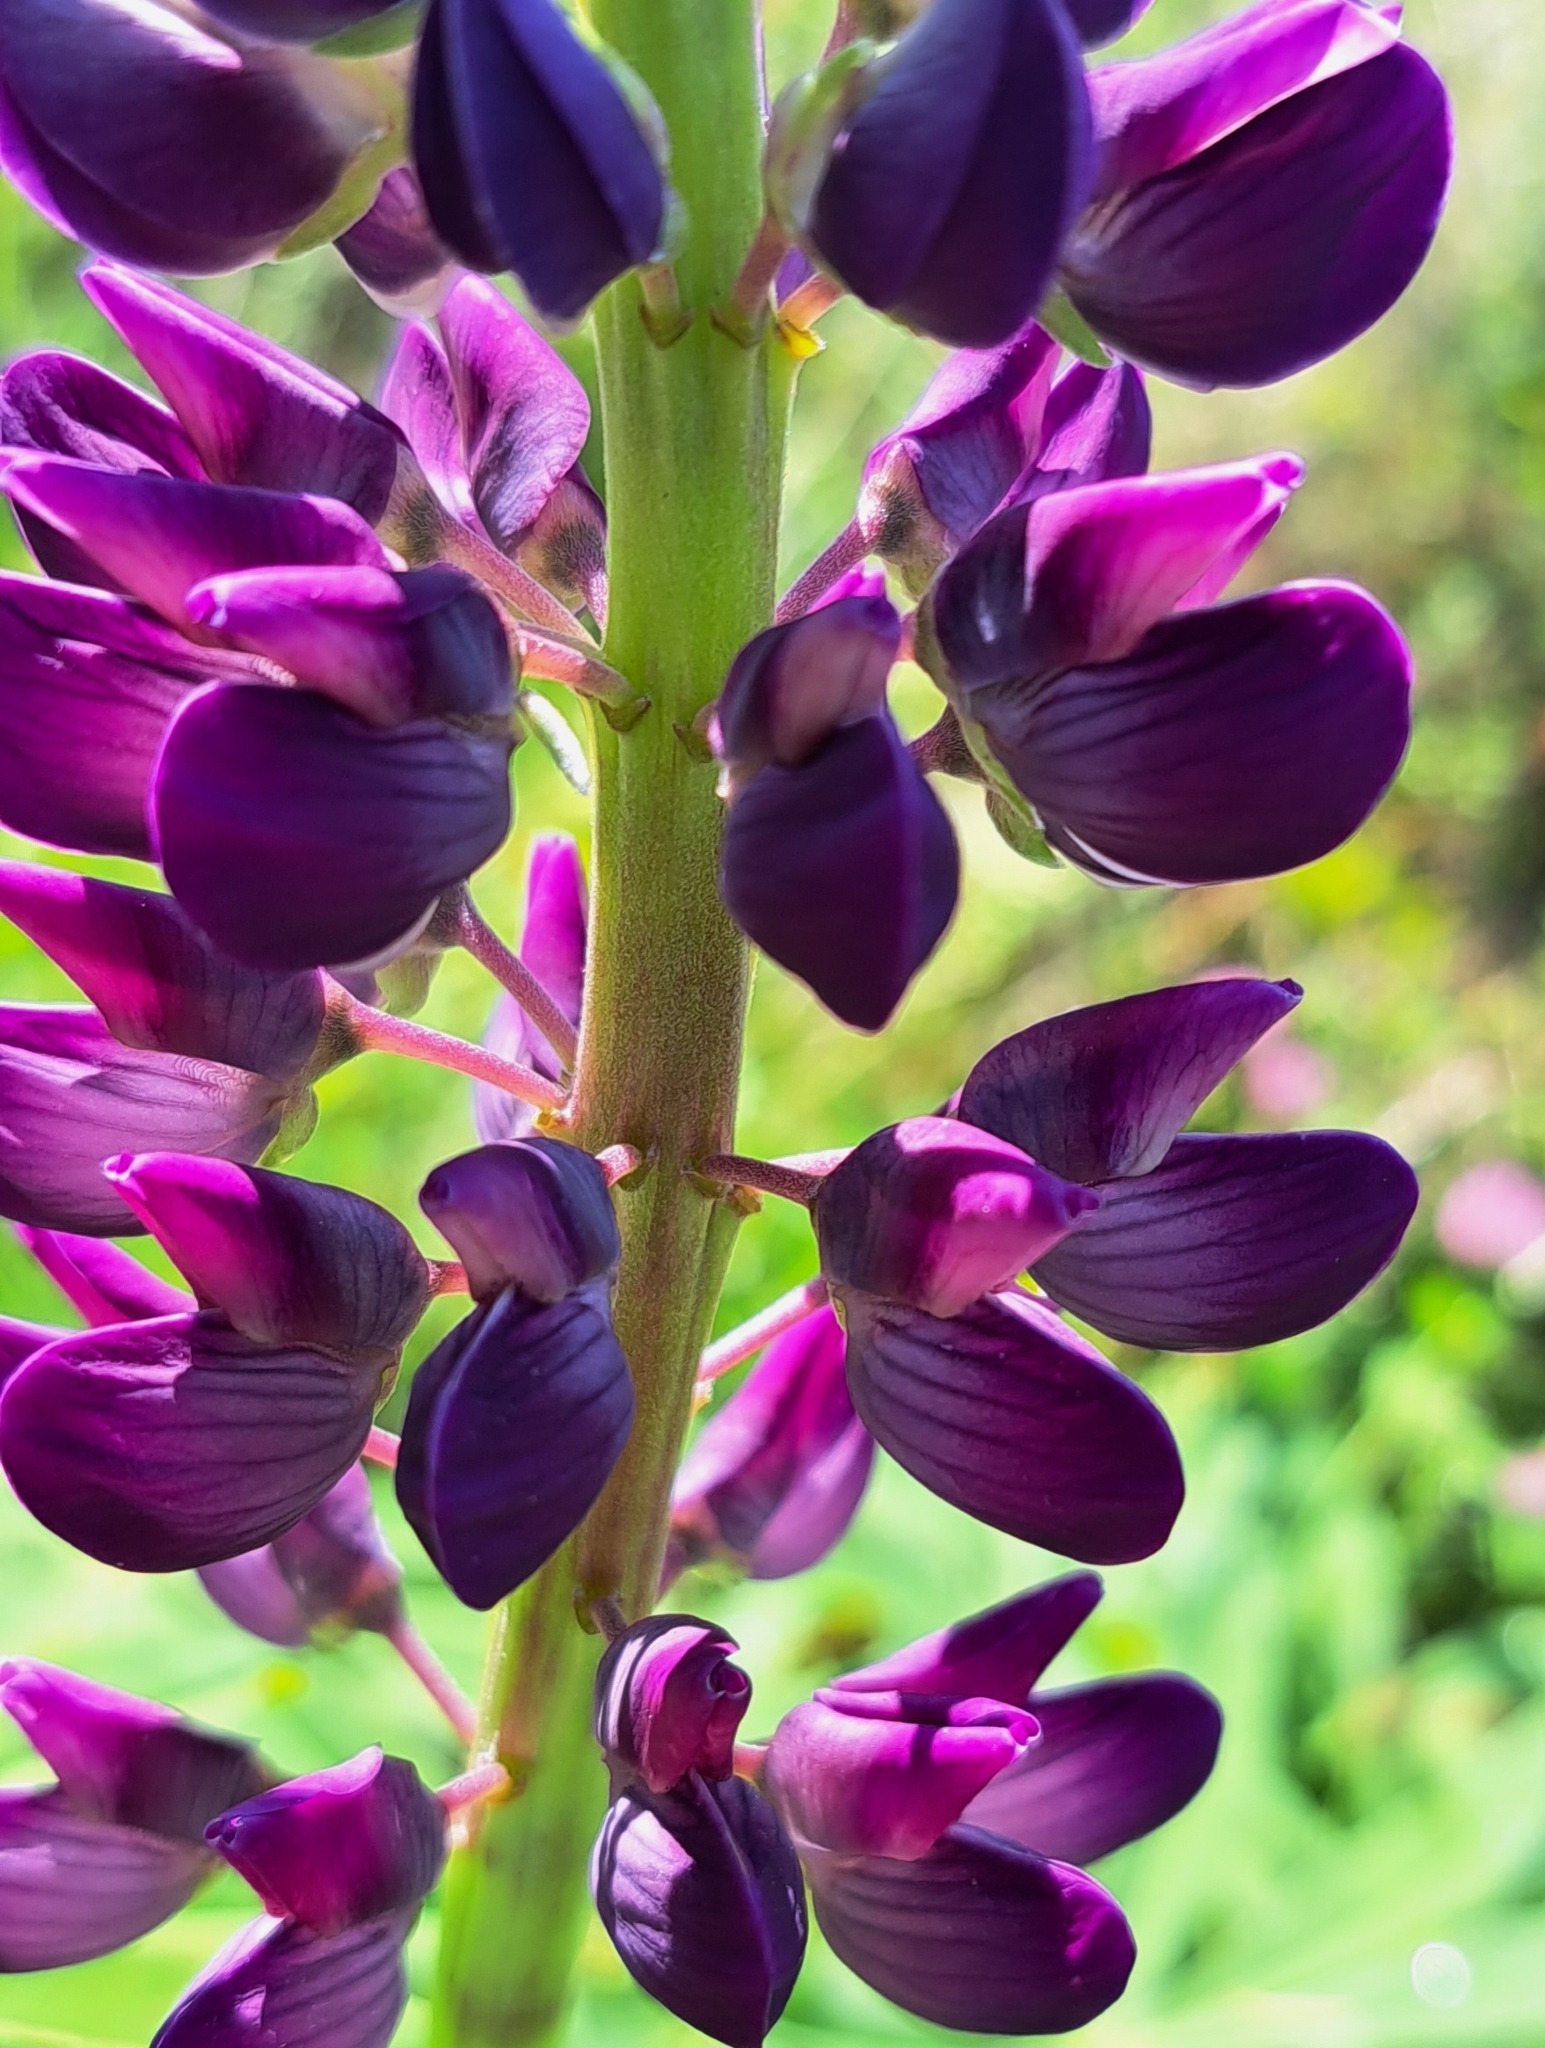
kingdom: Plantae
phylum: Tracheophyta
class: Magnoliopsida
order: Fabales
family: Fabaceae
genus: Lupinus
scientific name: Lupinus polyphyllus
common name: Garden lupin
